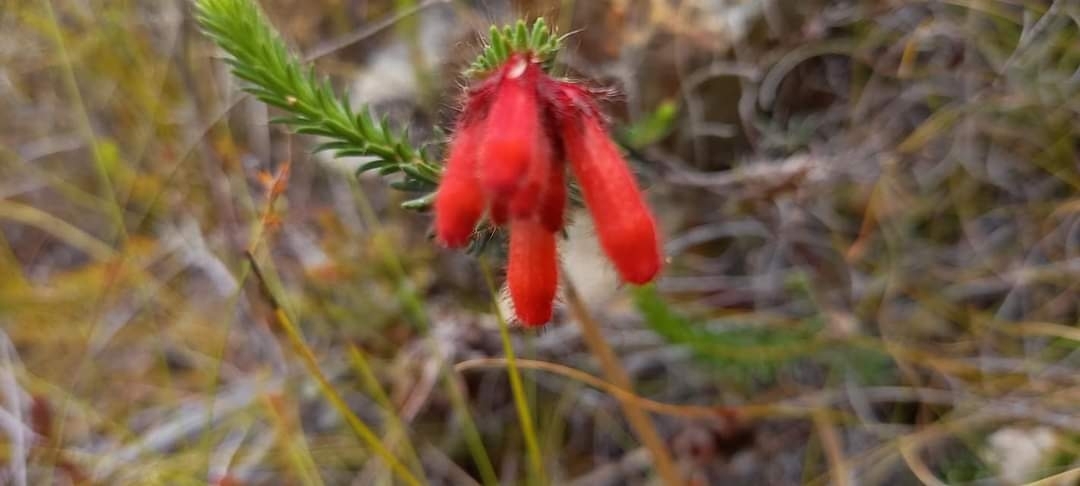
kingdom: Plantae
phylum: Tracheophyta
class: Magnoliopsida
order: Ericales
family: Ericaceae
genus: Erica
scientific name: Erica cerinthoides
